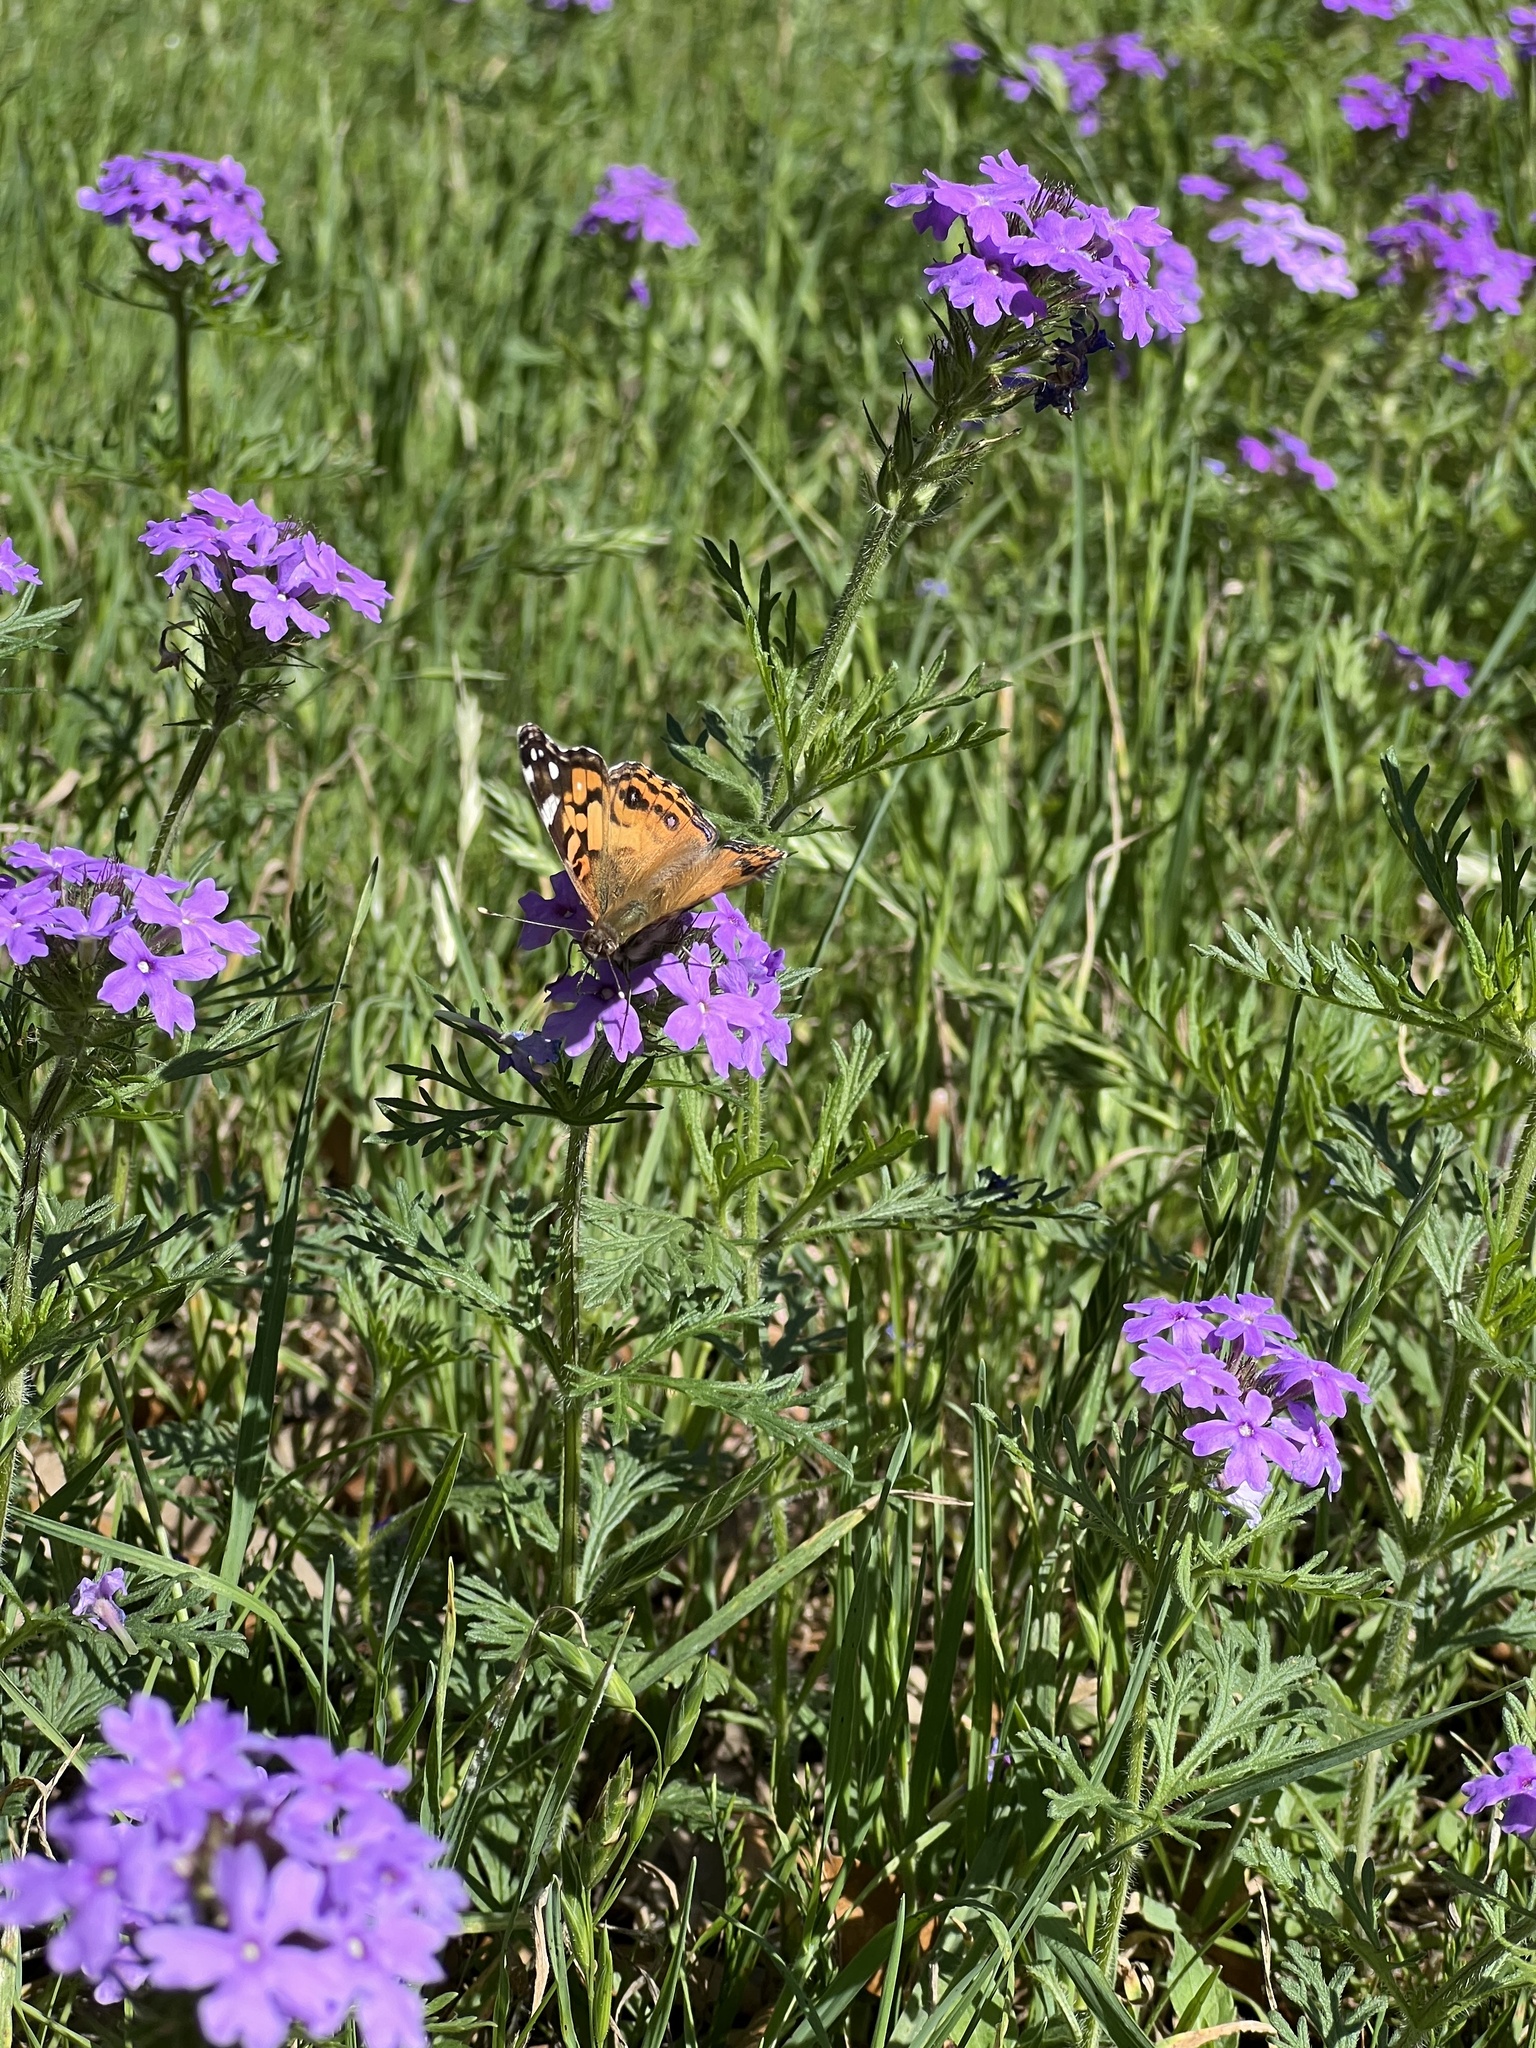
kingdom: Animalia
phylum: Arthropoda
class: Insecta
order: Lepidoptera
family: Nymphalidae
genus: Vanessa
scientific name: Vanessa virginiensis
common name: American lady
